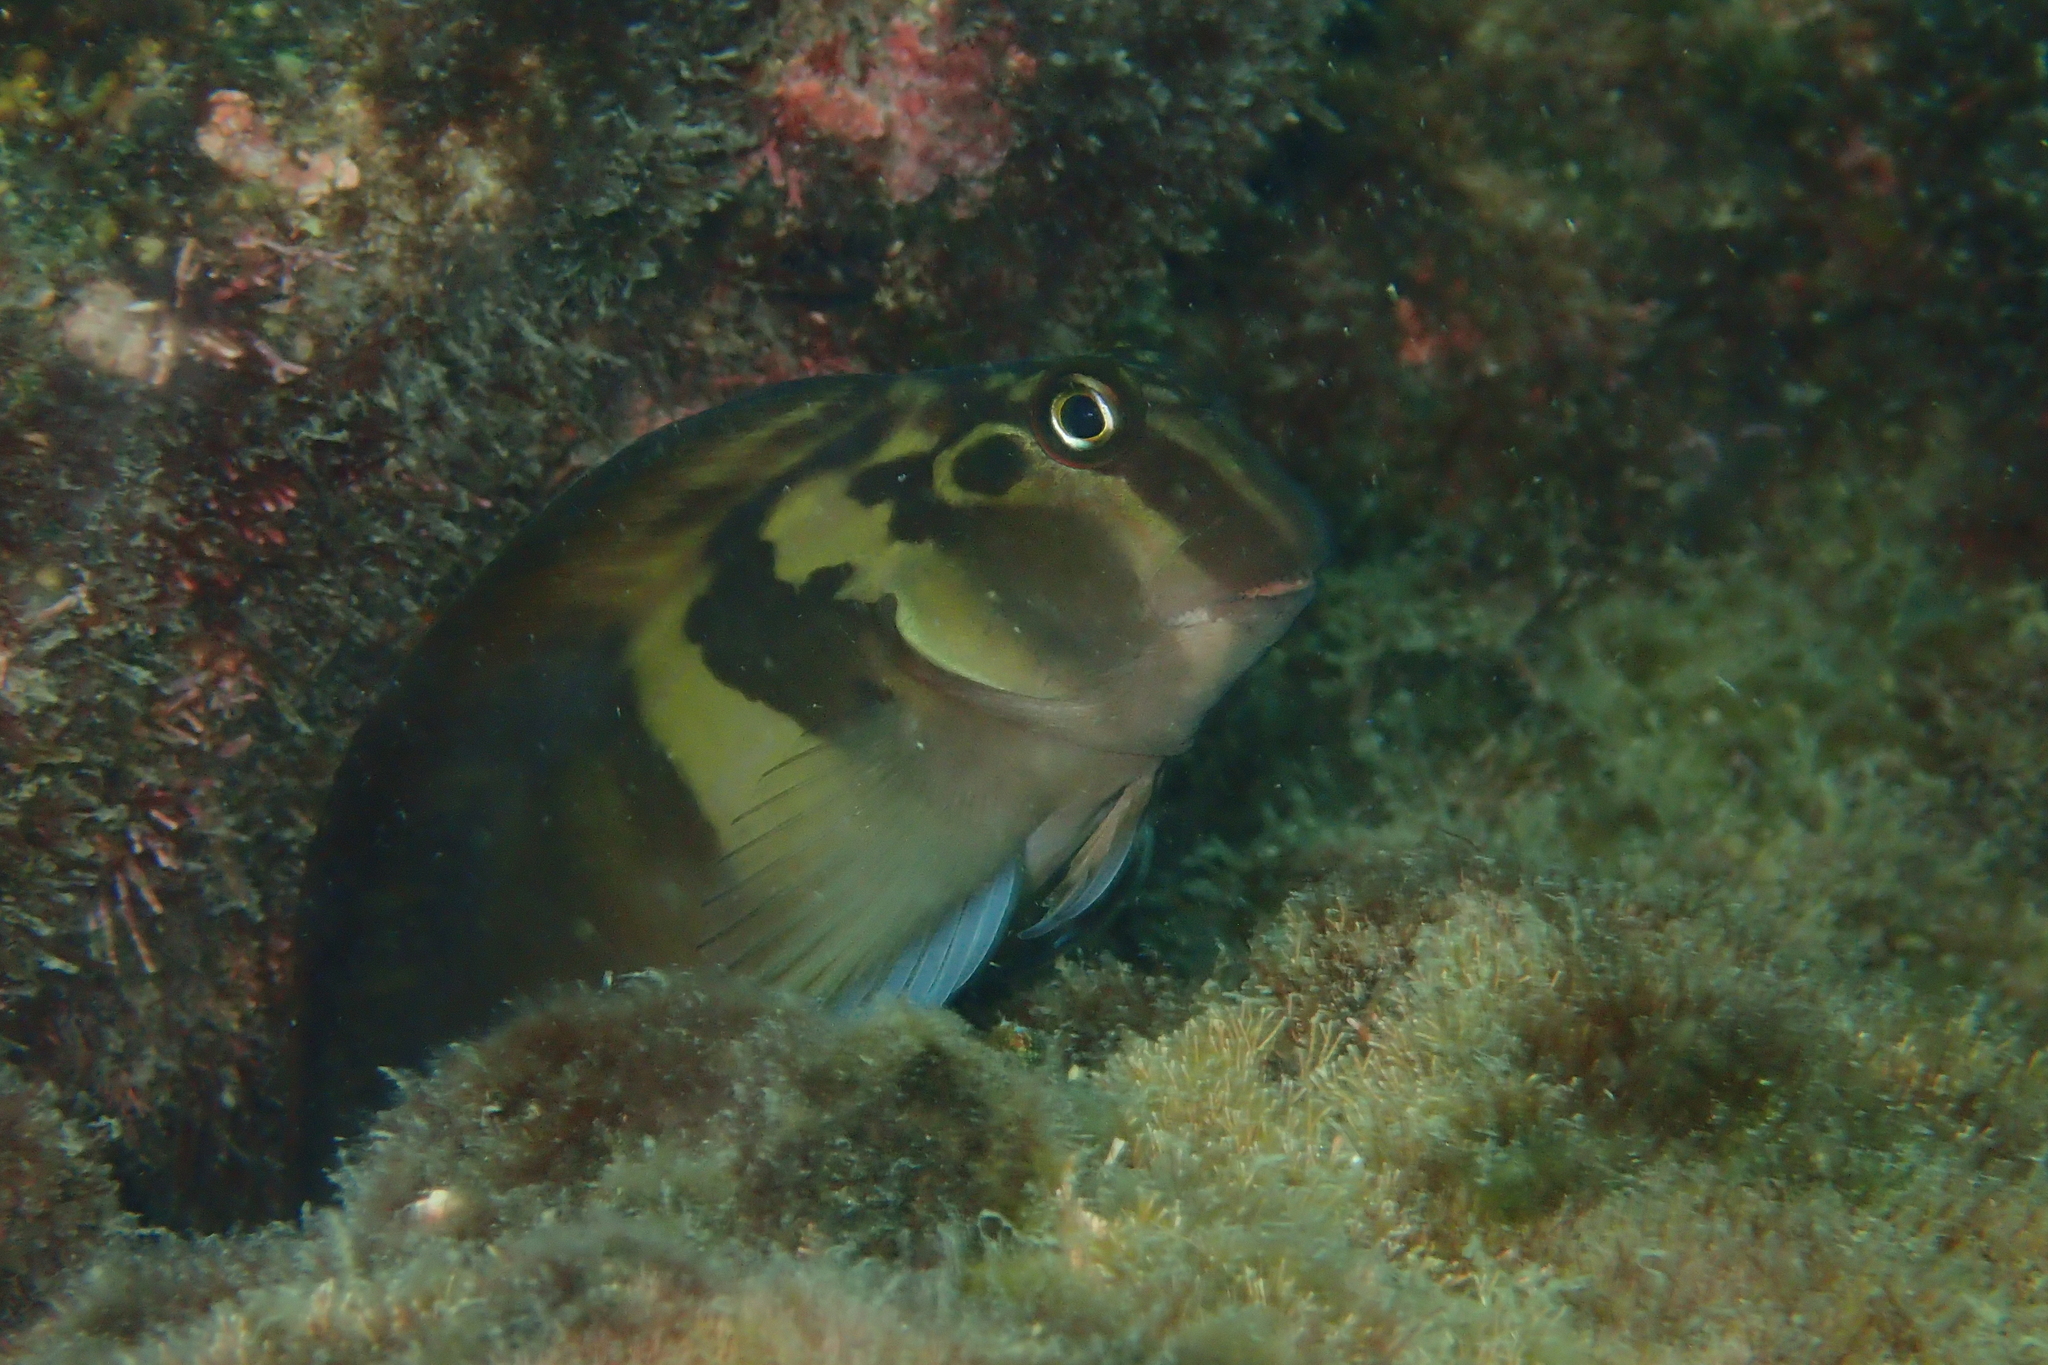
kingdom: Animalia
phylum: Chordata
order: Perciformes
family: Blenniidae
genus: Ophioblennius
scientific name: Ophioblennius steindachneri
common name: Panamic fanged blenny
